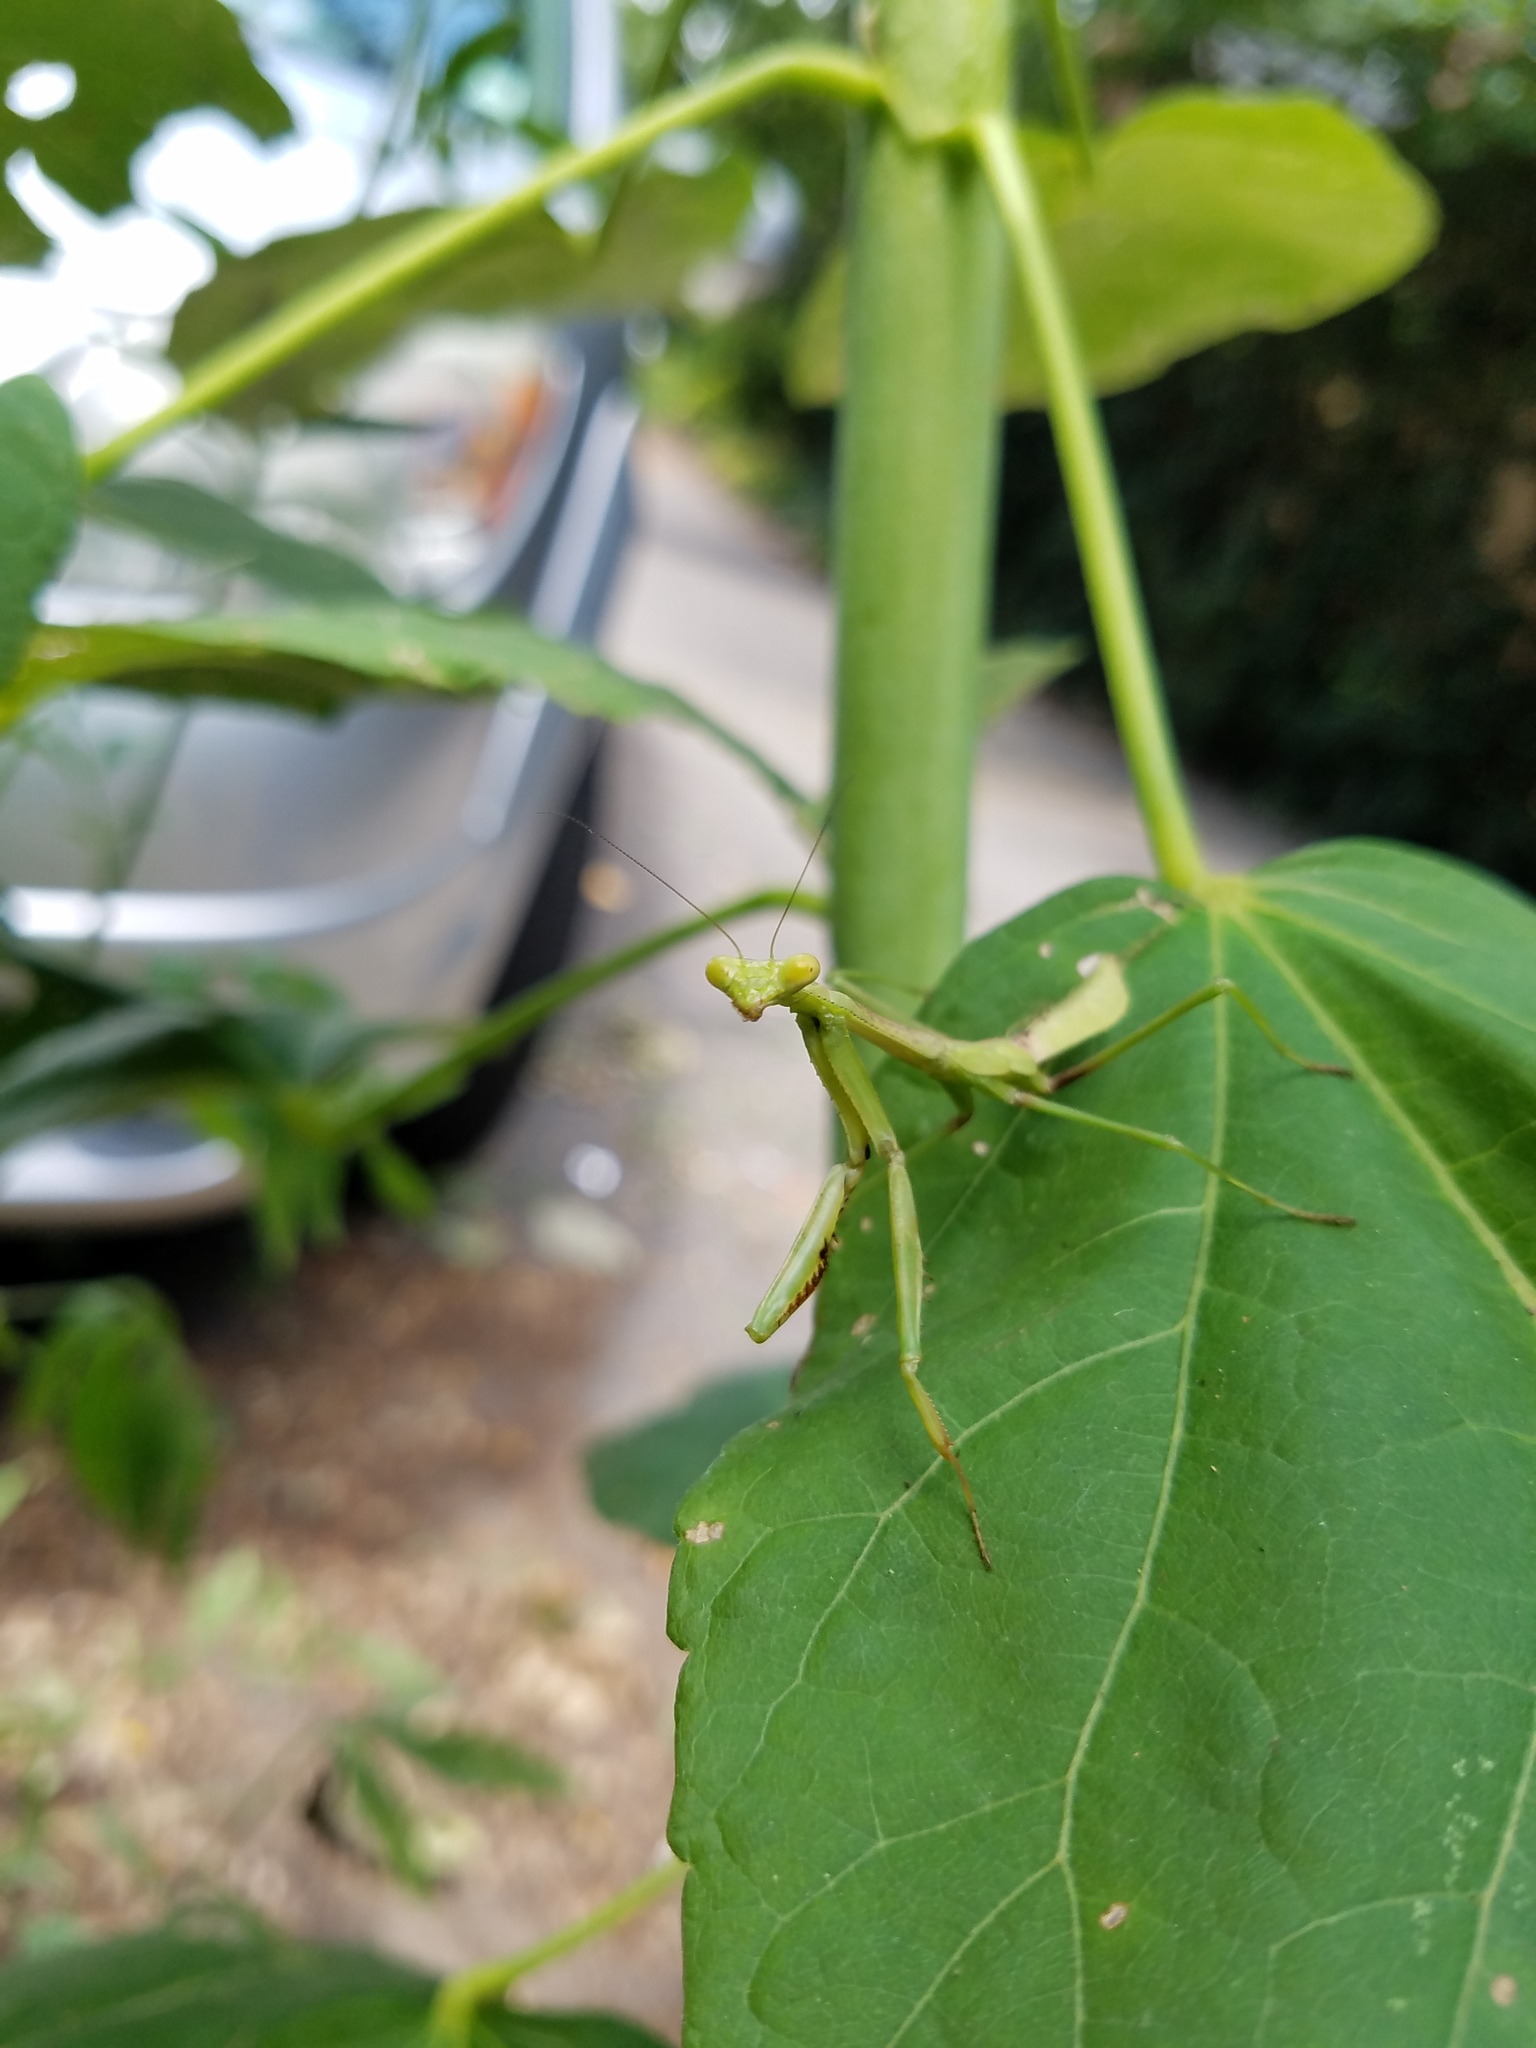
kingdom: Animalia
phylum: Arthropoda
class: Insecta
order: Mantodea
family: Mantidae
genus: Stagmomantis
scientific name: Stagmomantis carolina
